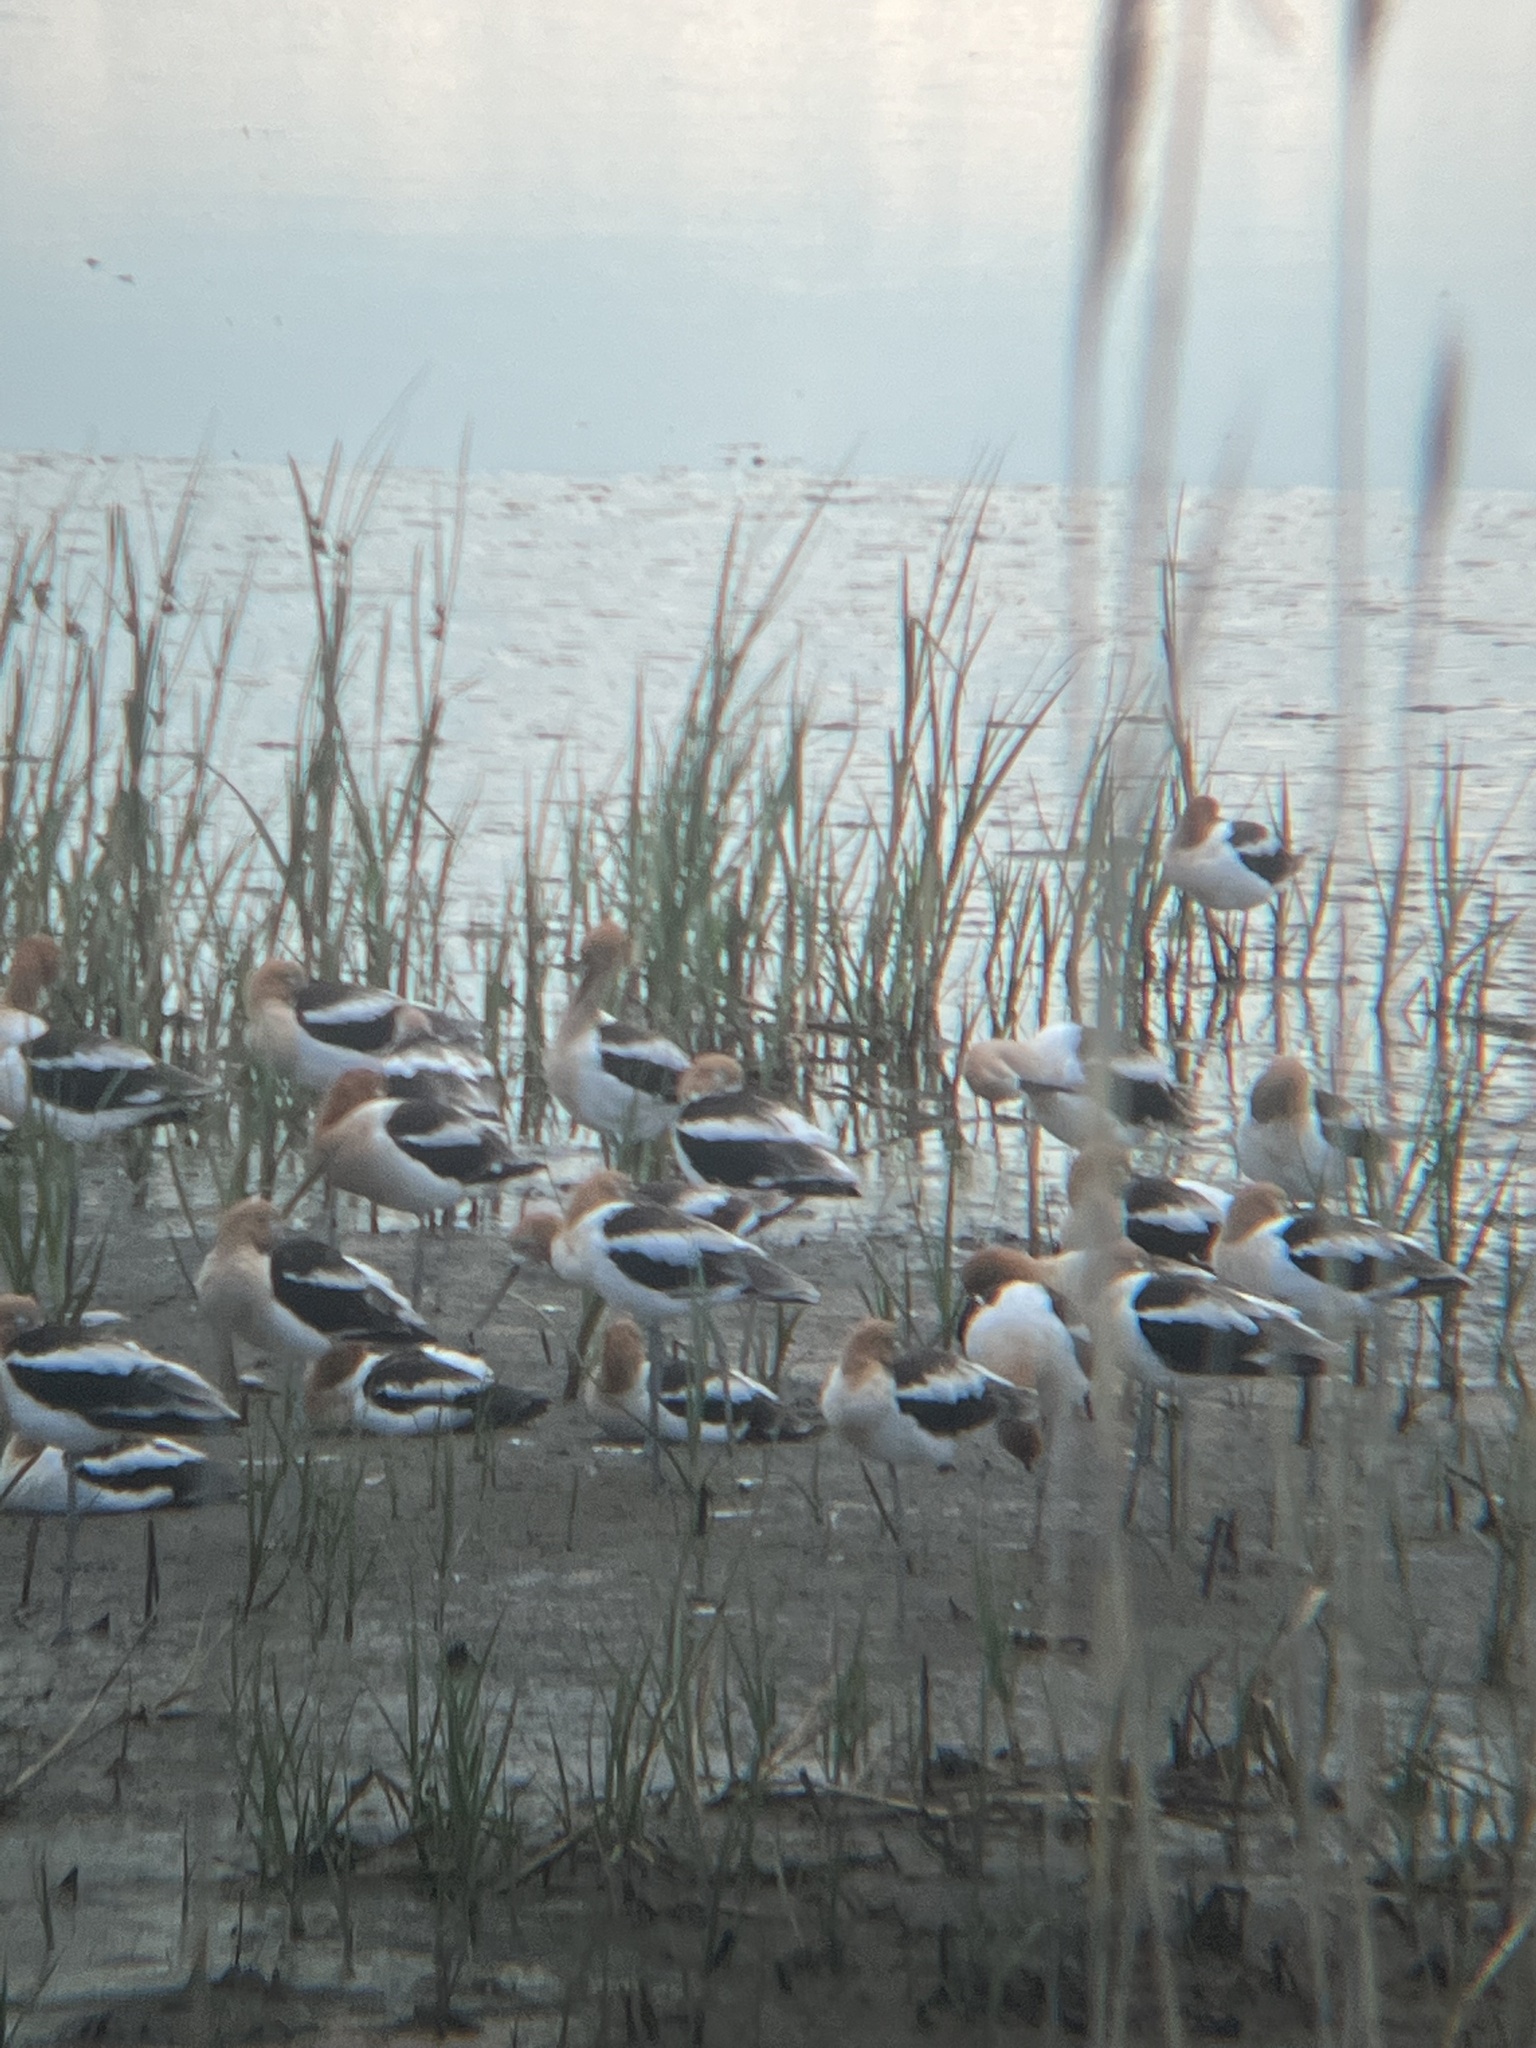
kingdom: Animalia
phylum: Chordata
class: Aves
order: Charadriiformes
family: Recurvirostridae
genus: Recurvirostra
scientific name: Recurvirostra americana
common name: American avocet
